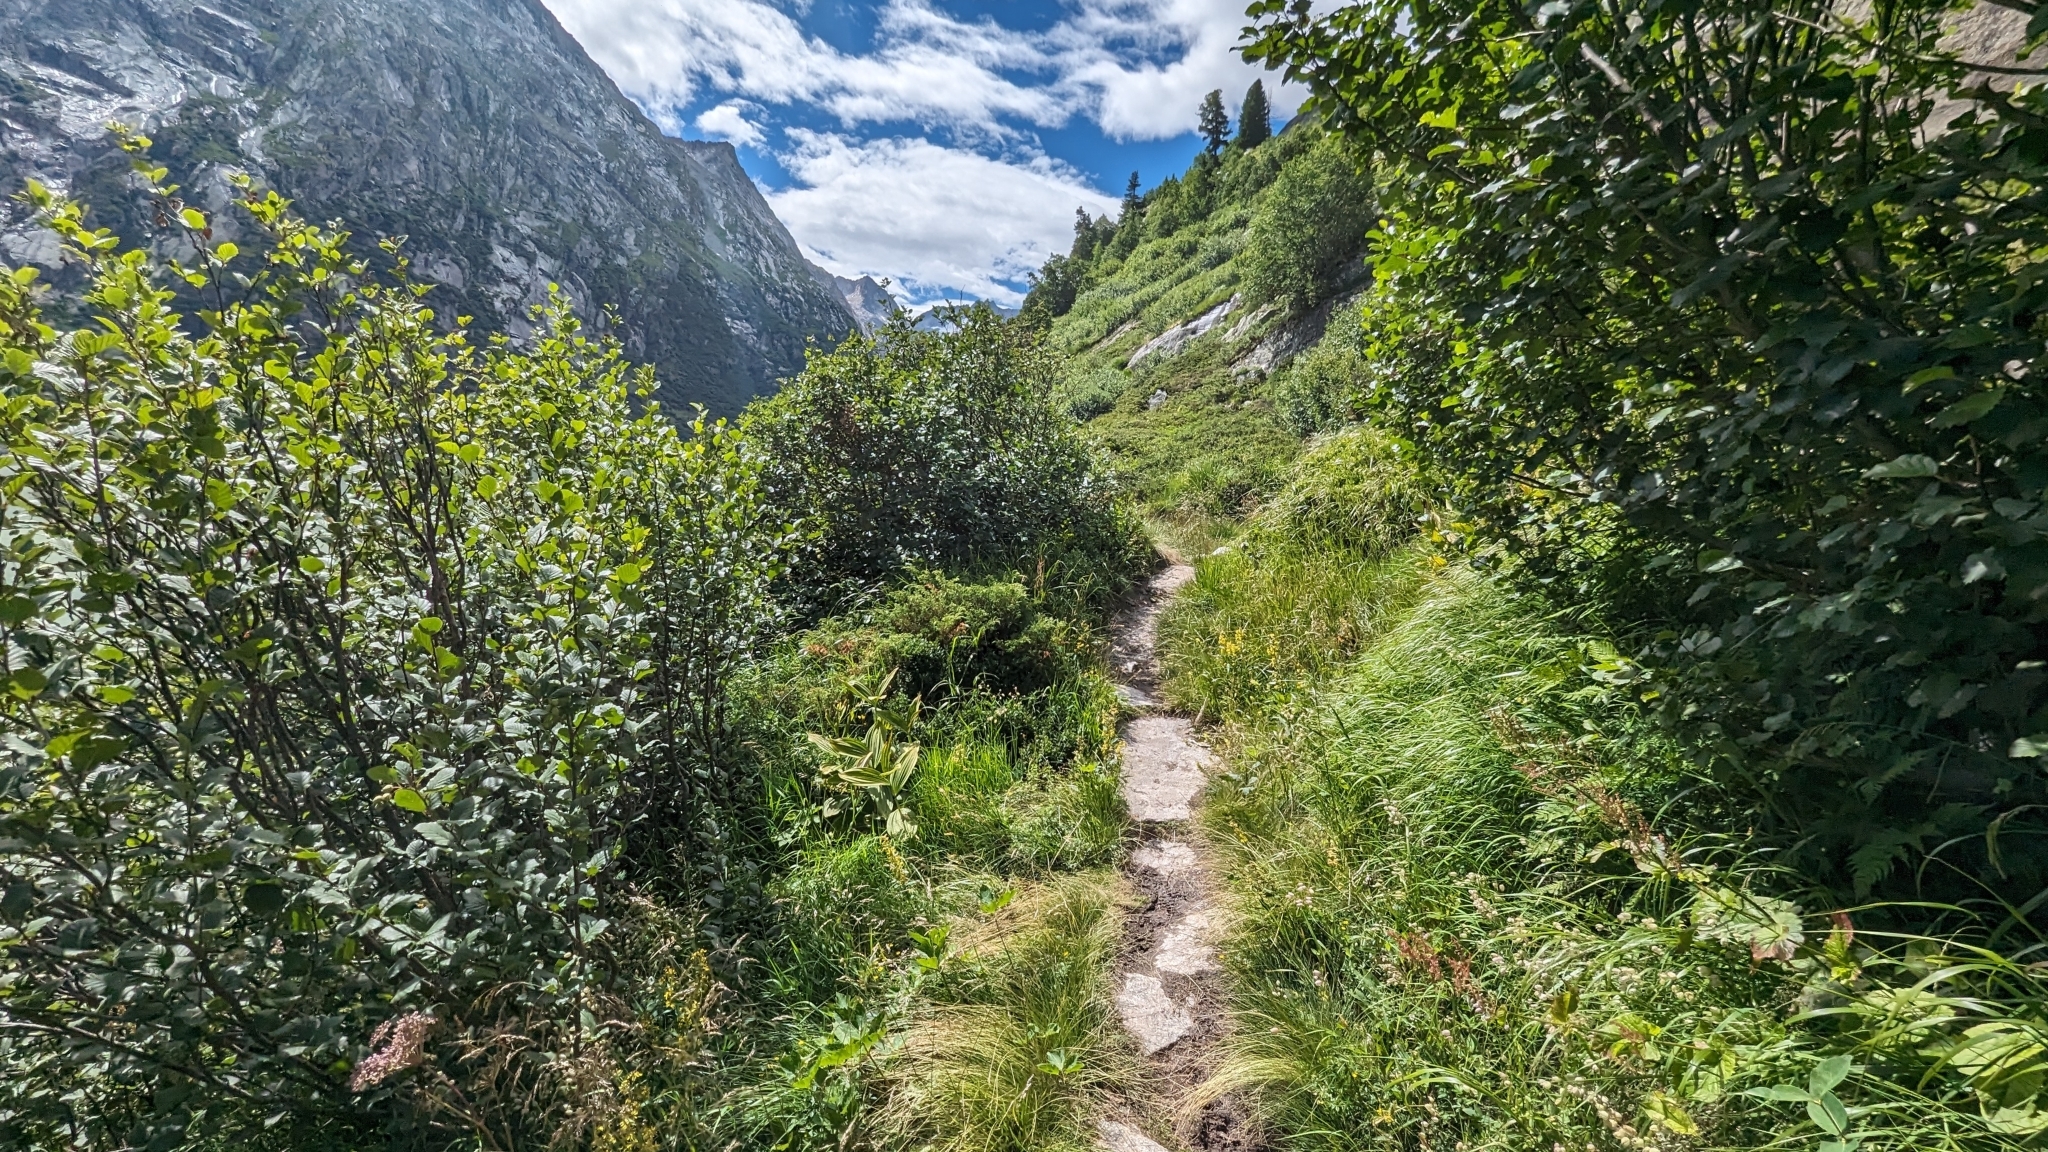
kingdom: Animalia
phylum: Arthropoda
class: Insecta
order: Hymenoptera
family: Formicidae
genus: Formica
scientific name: Formica
